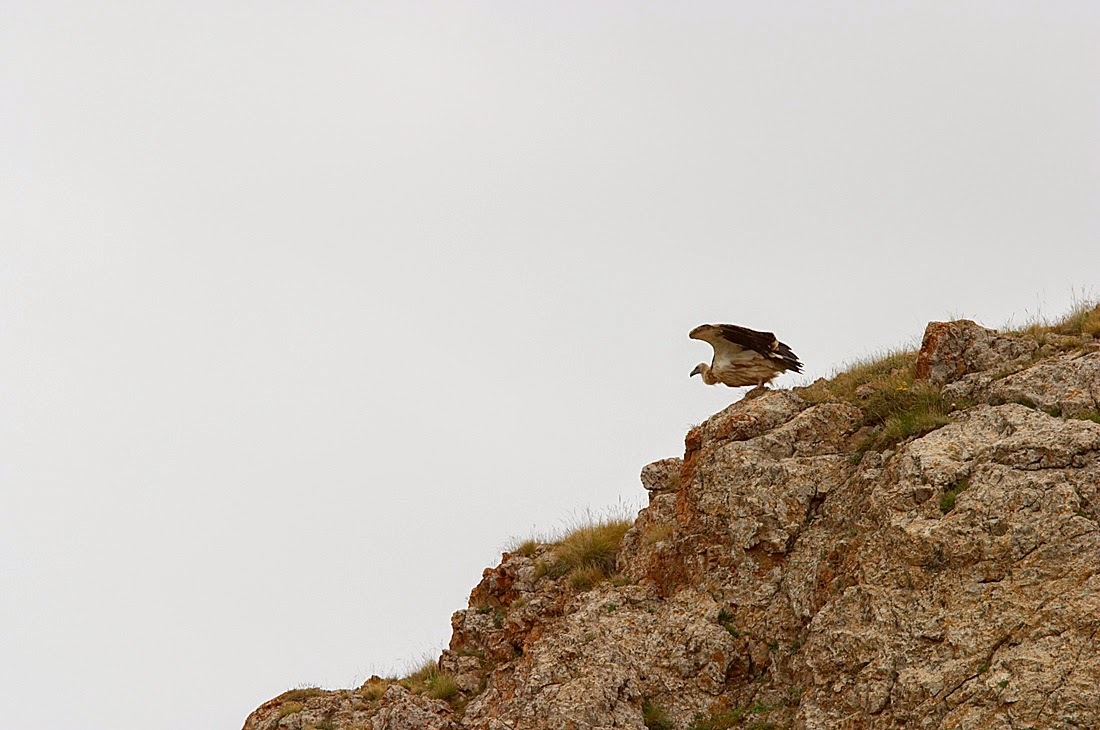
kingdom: Animalia
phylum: Chordata
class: Aves
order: Accipitriformes
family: Accipitridae
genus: Gyps
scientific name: Gyps himalayensis
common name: Himalayan griffon
